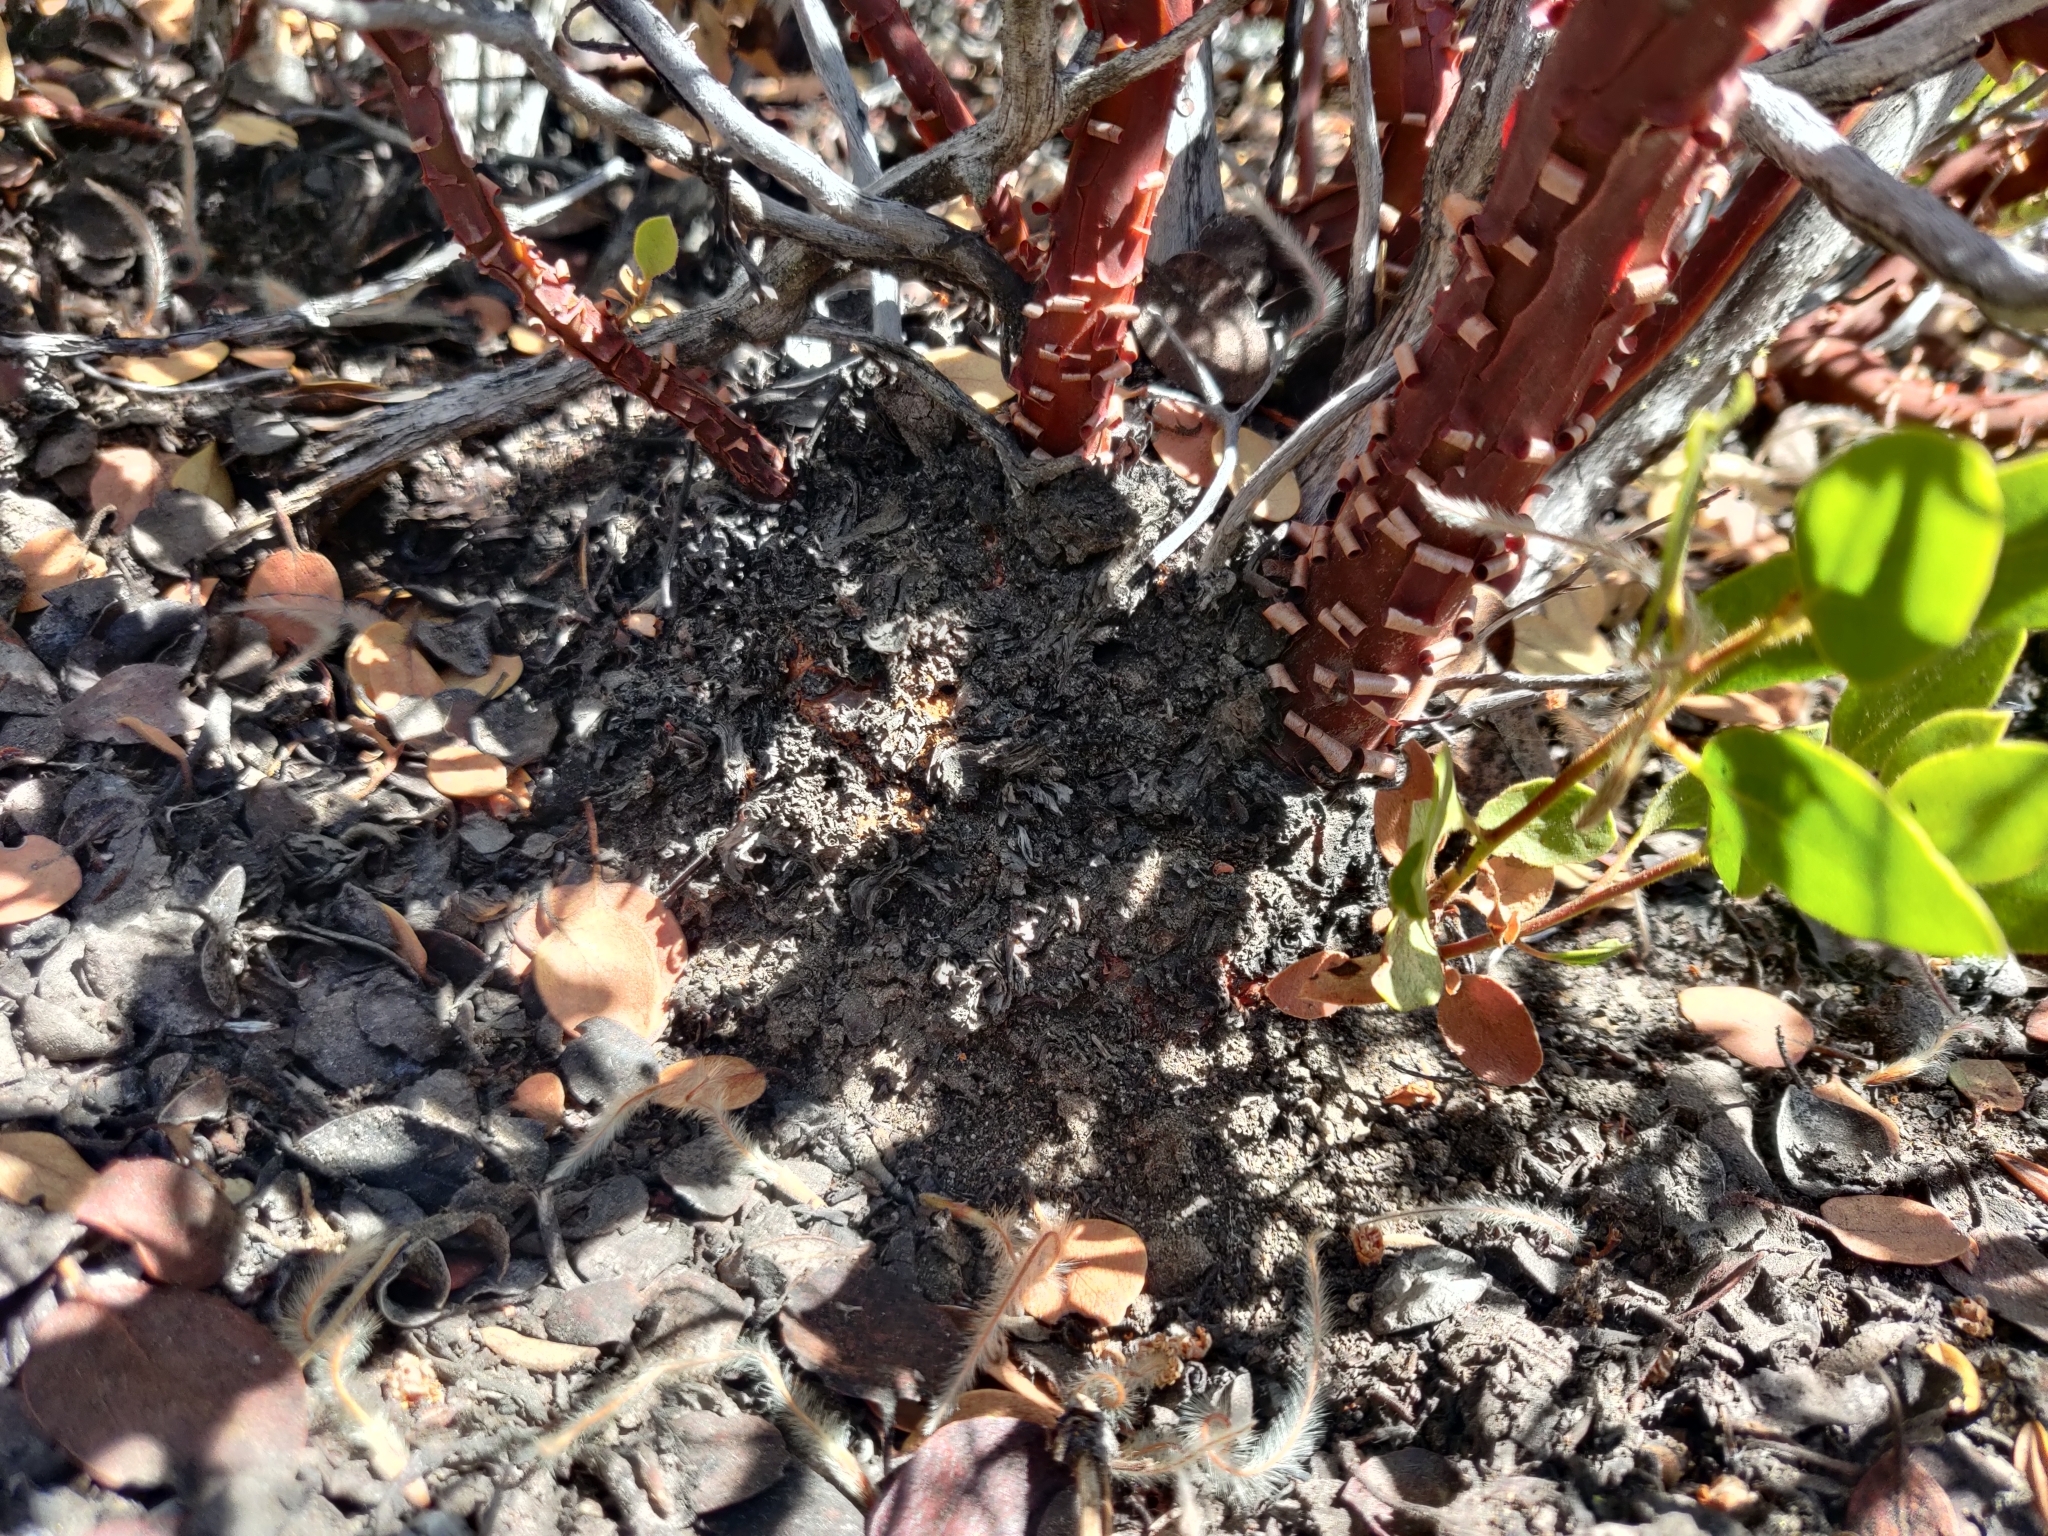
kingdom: Plantae
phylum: Tracheophyta
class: Magnoliopsida
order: Ericales
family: Ericaceae
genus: Arctostaphylos
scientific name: Arctostaphylos patula
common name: Green-leaf manzanita
